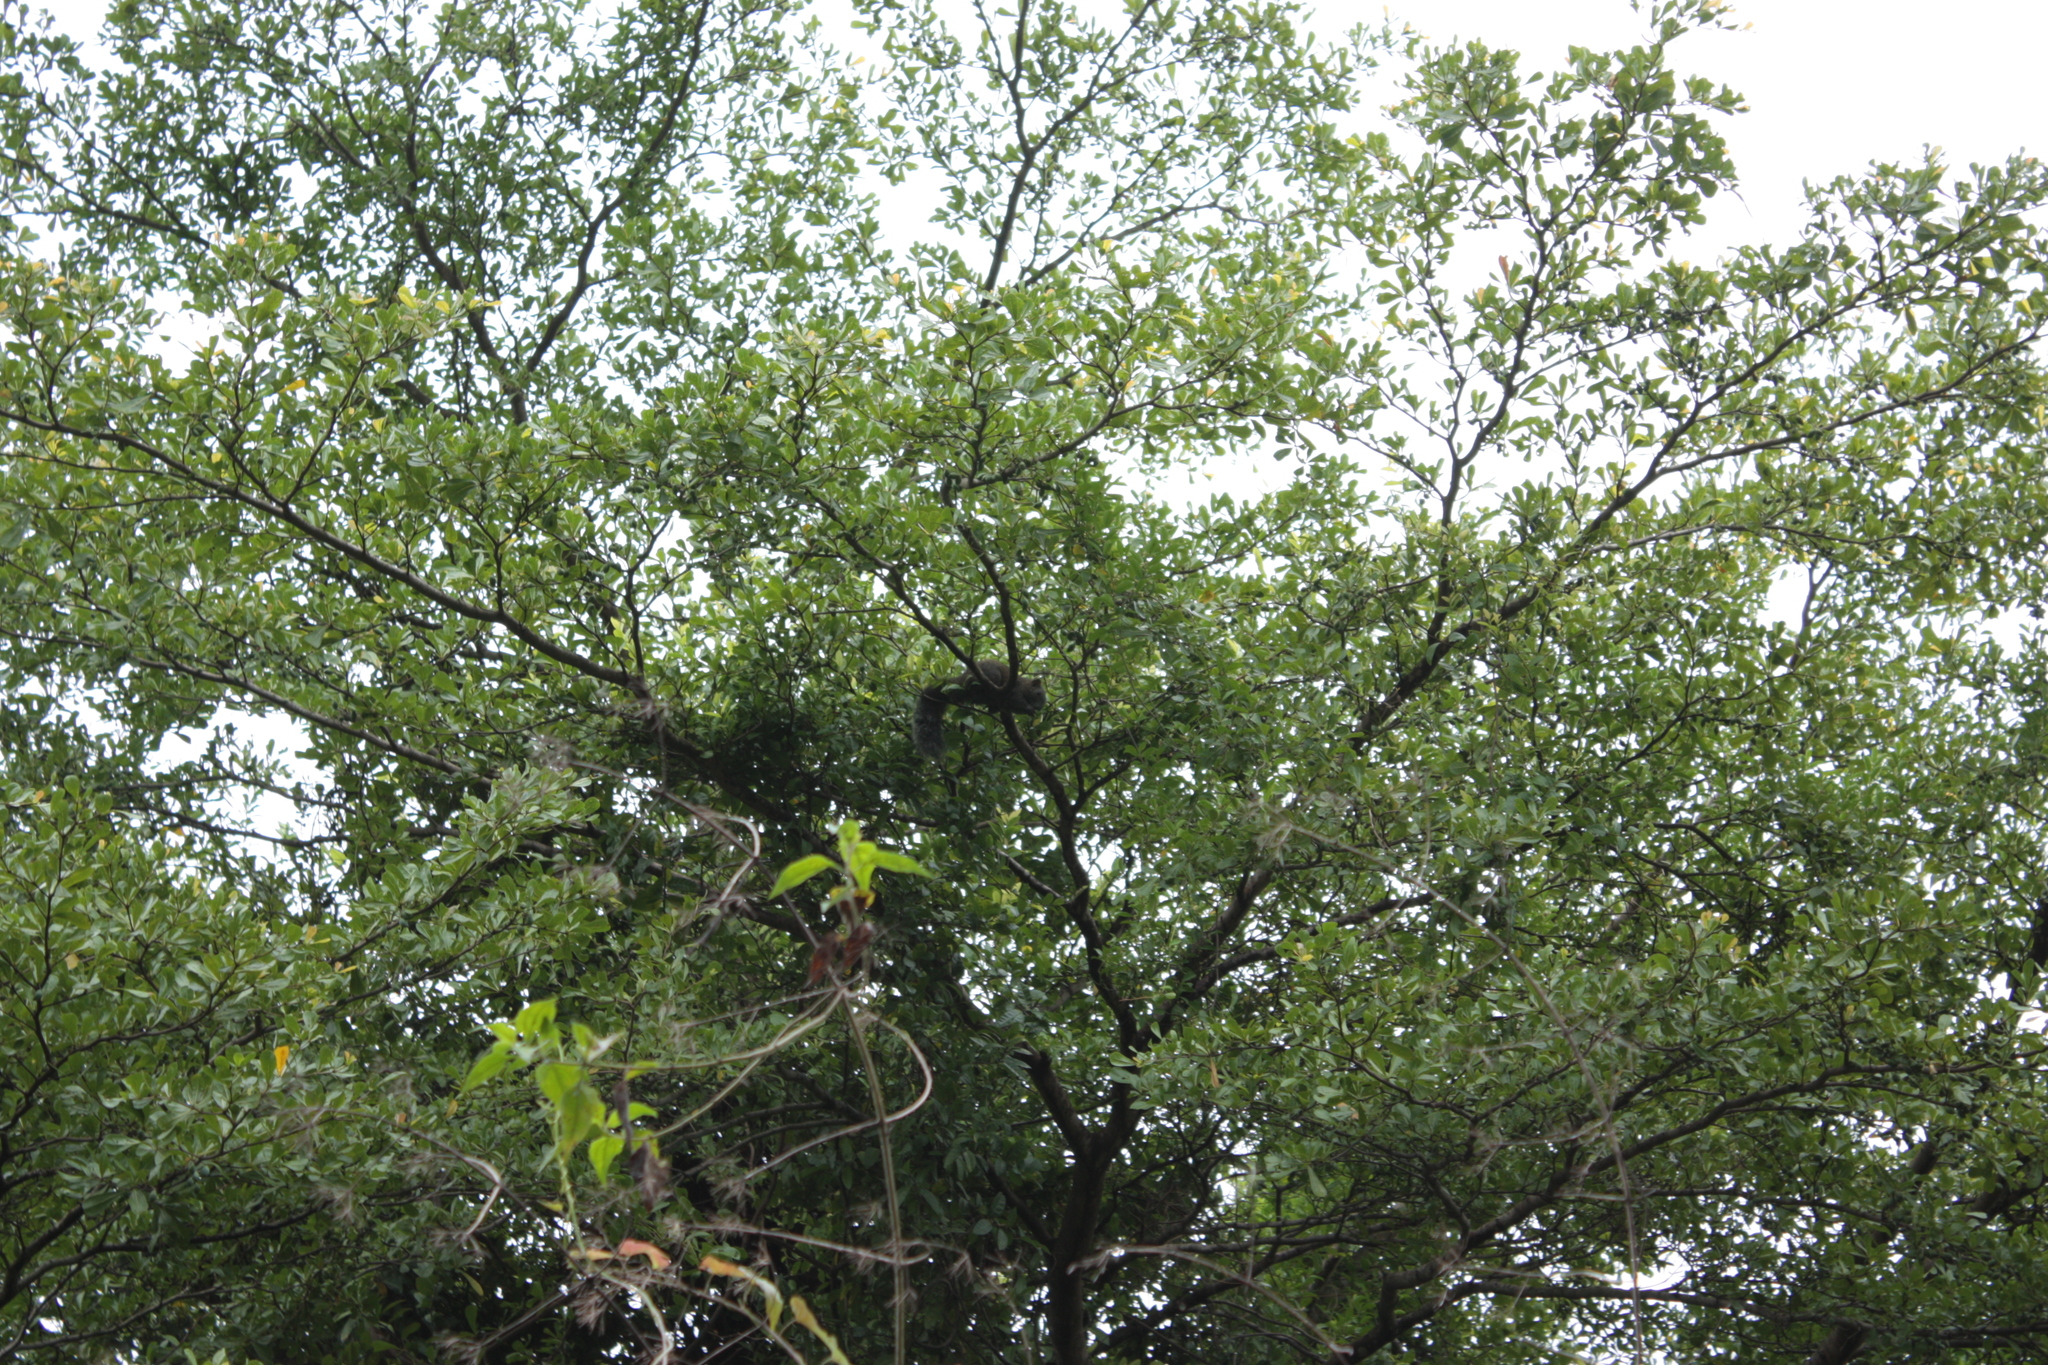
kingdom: Animalia
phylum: Chordata
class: Mammalia
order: Rodentia
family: Sciuridae
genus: Callosciurus
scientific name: Callosciurus erythraeus
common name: Pallas's squirrel
